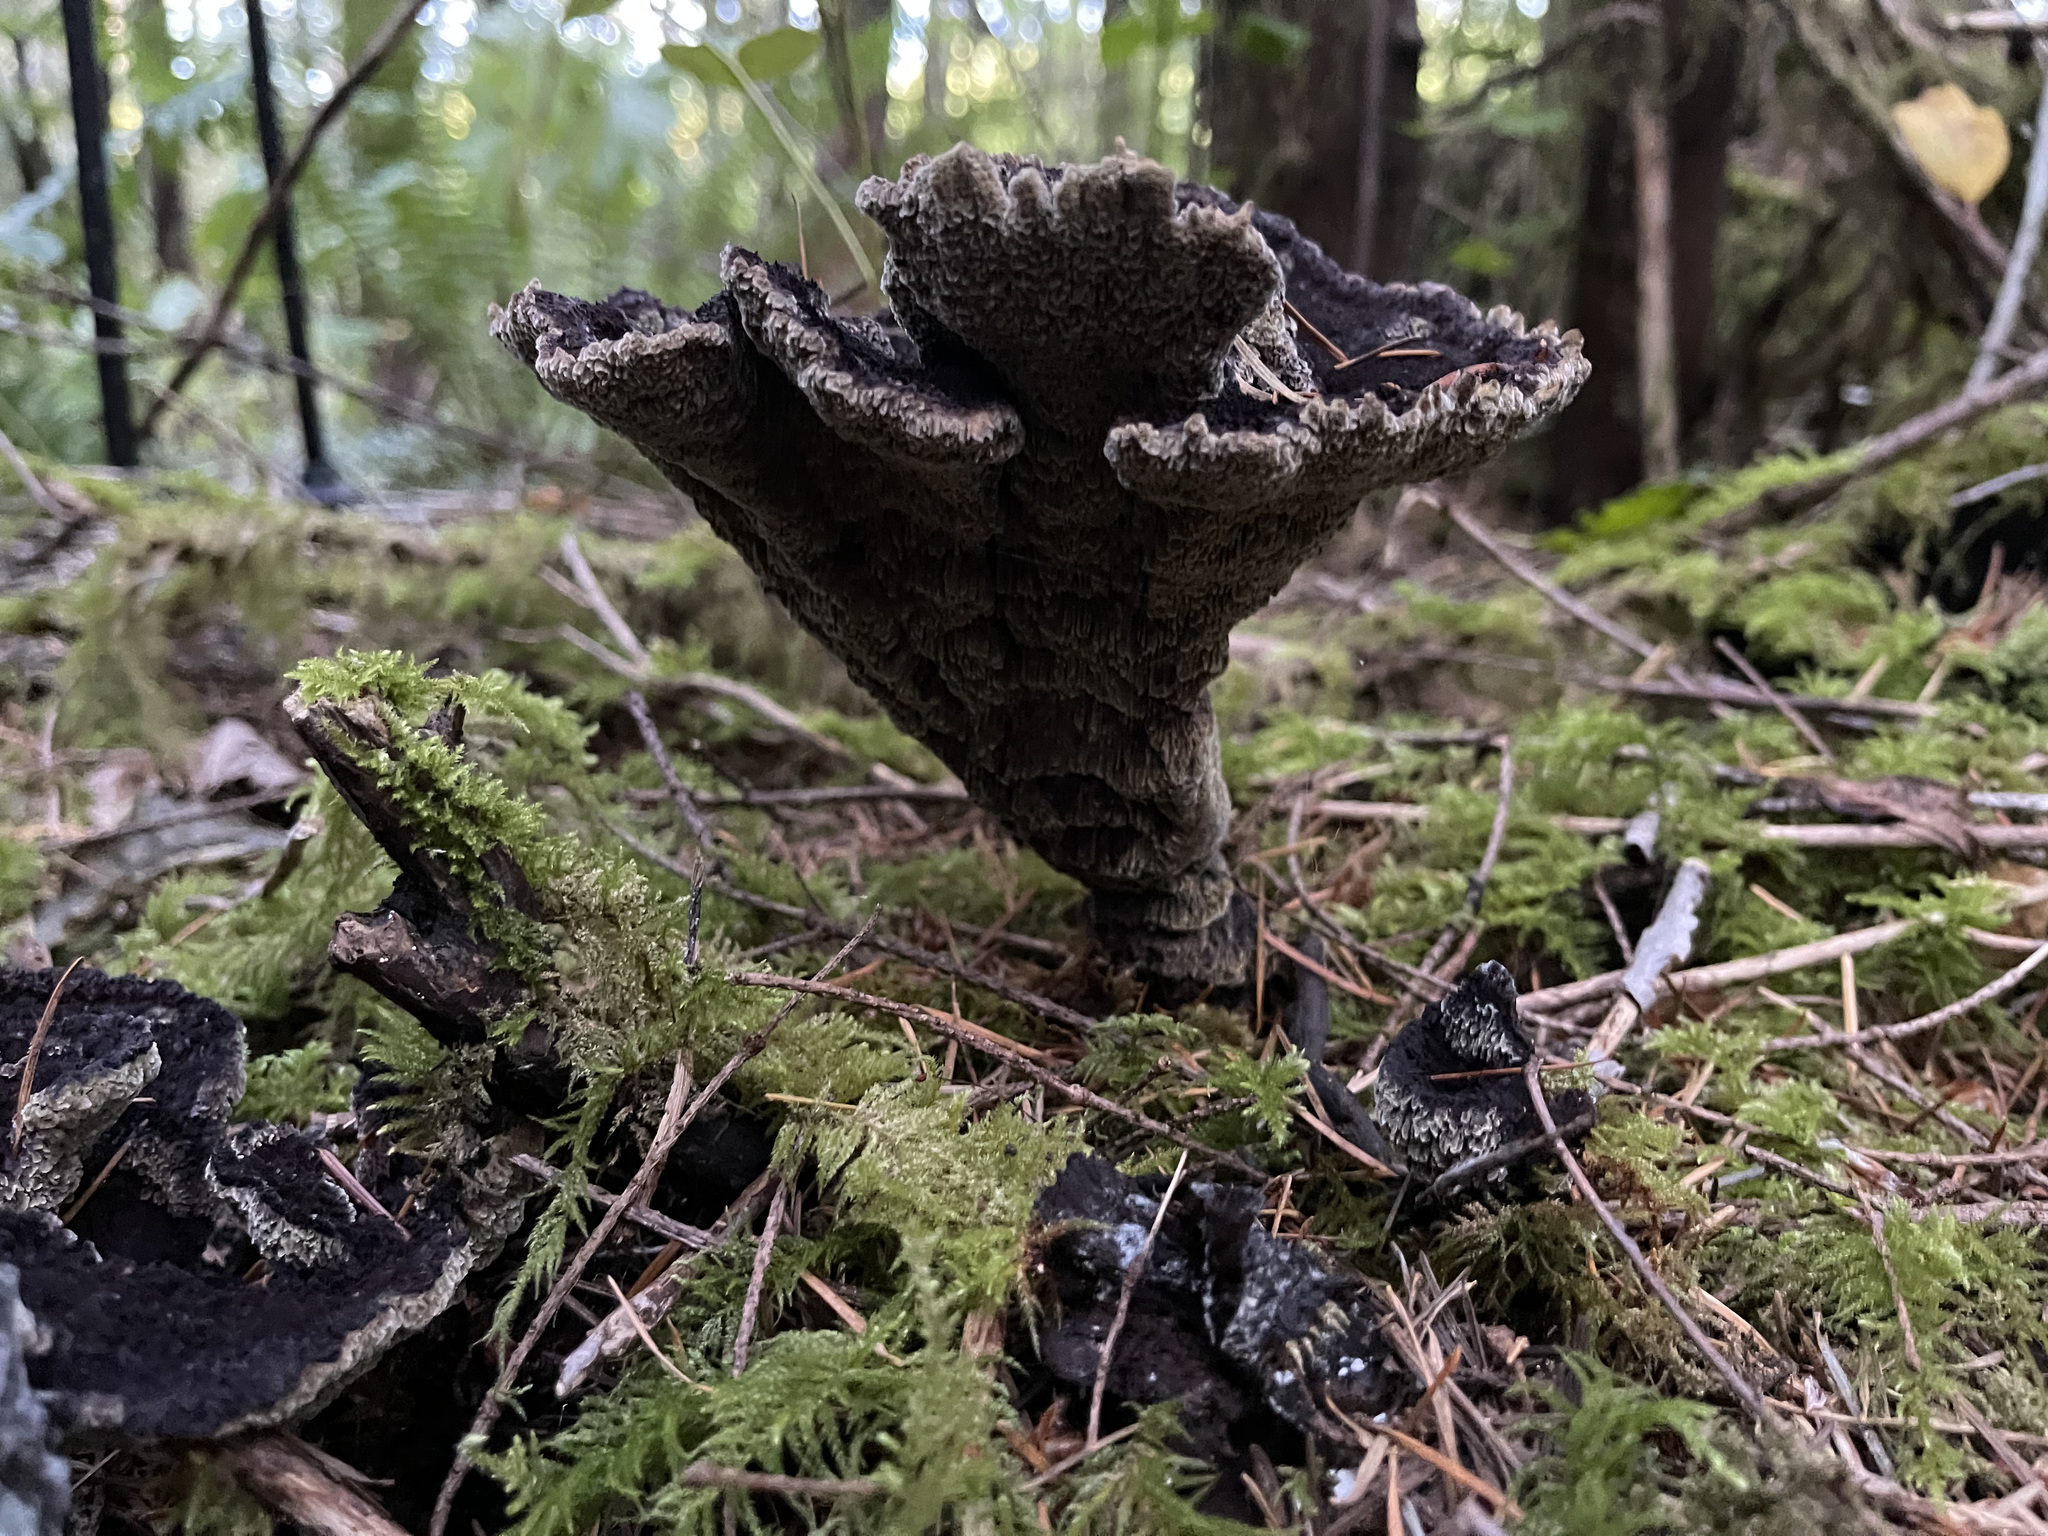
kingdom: Fungi
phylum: Basidiomycota
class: Agaricomycetes
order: Polyporales
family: Laetiporaceae
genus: Phaeolus
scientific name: Phaeolus schweinitzii
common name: Dyer's mazegill
